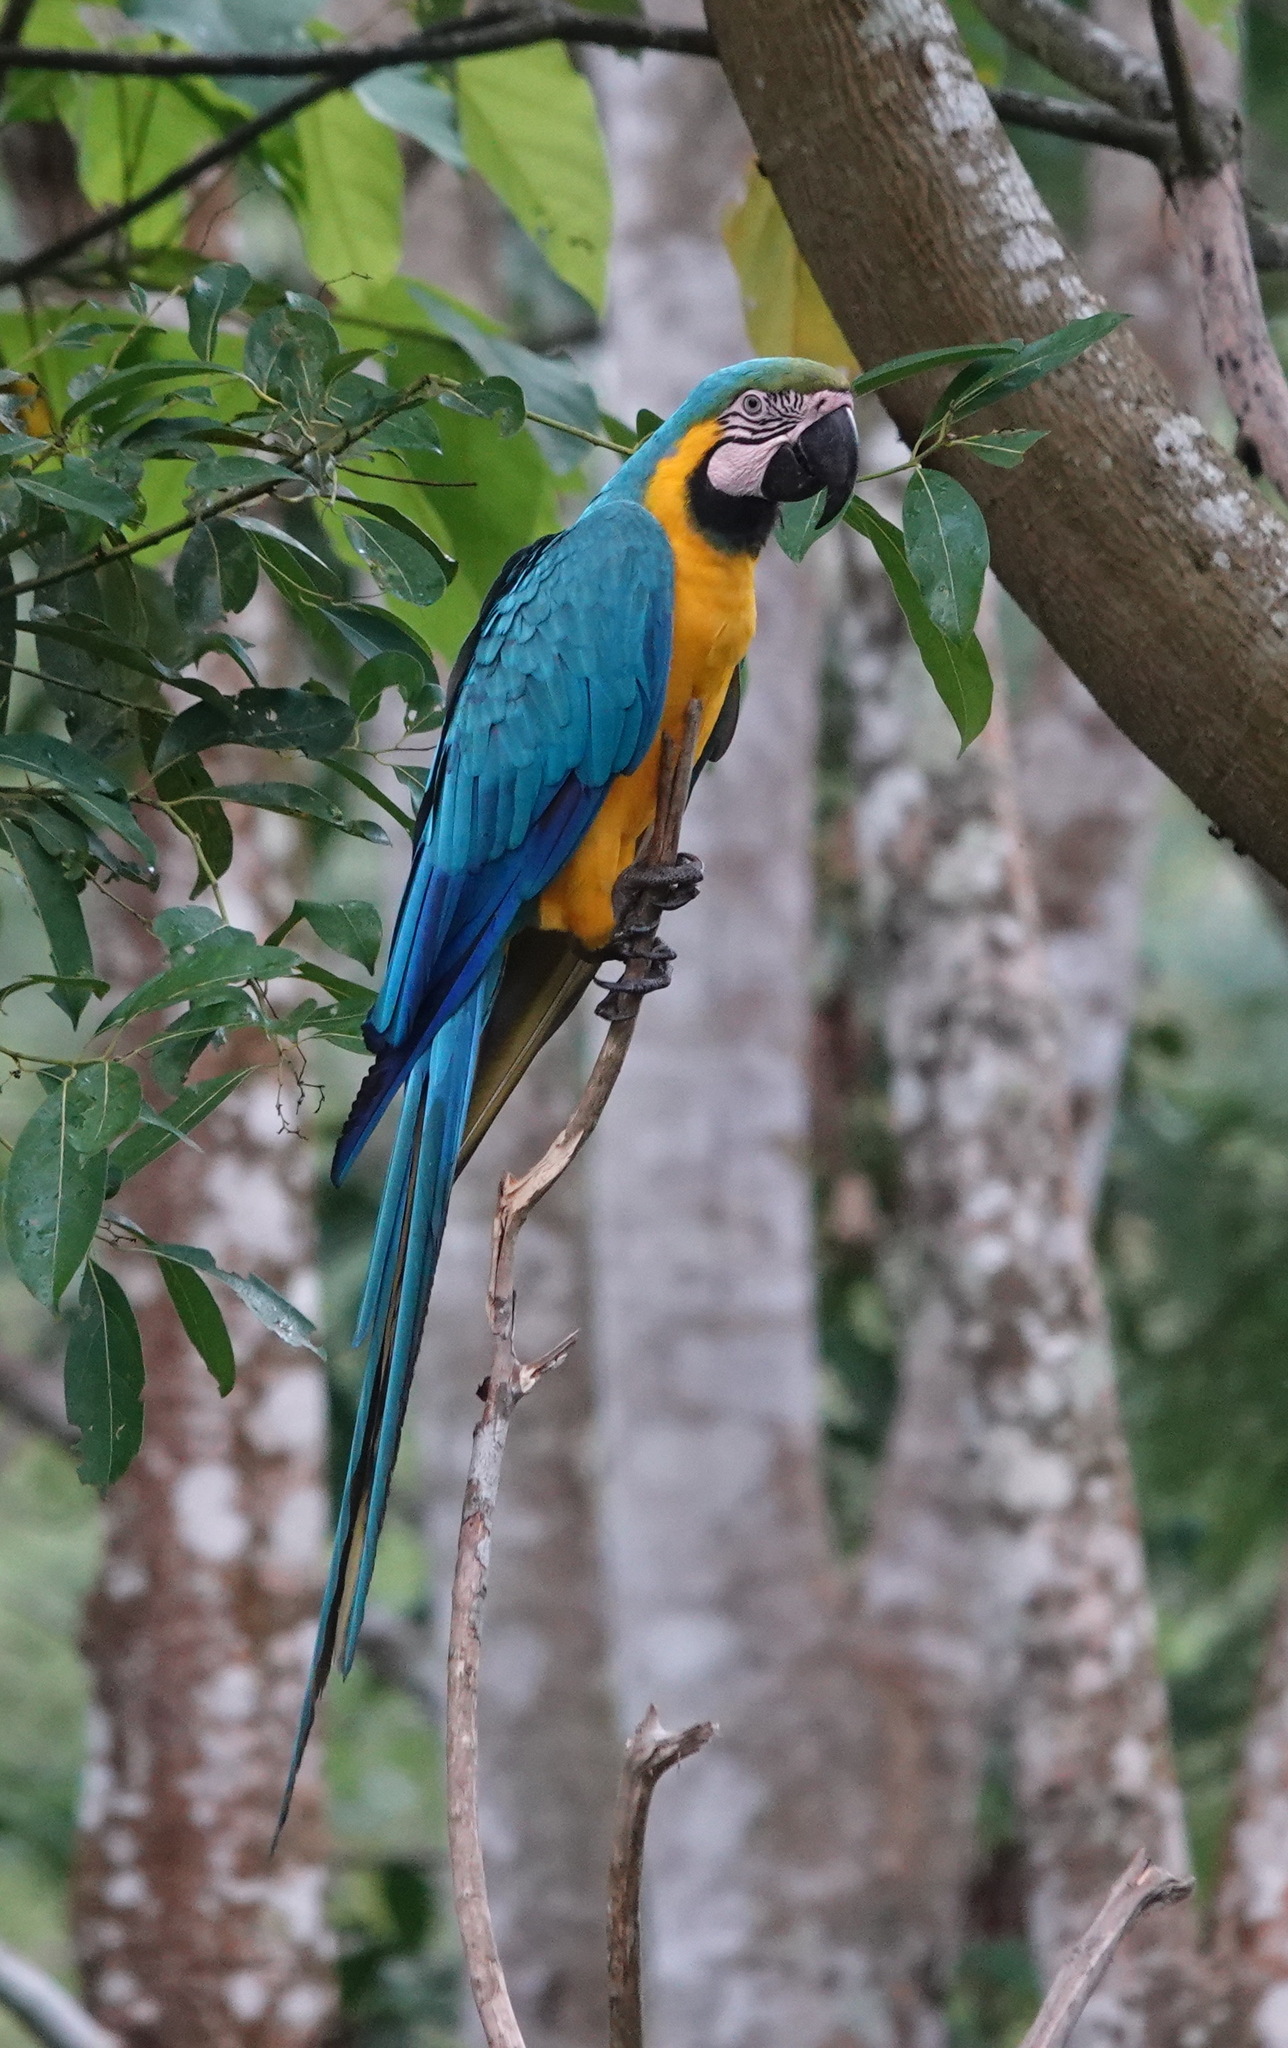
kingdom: Animalia
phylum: Chordata
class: Aves
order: Psittaciformes
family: Psittacidae
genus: Ara
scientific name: Ara ararauna
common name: Blue-and-yellow macaw
